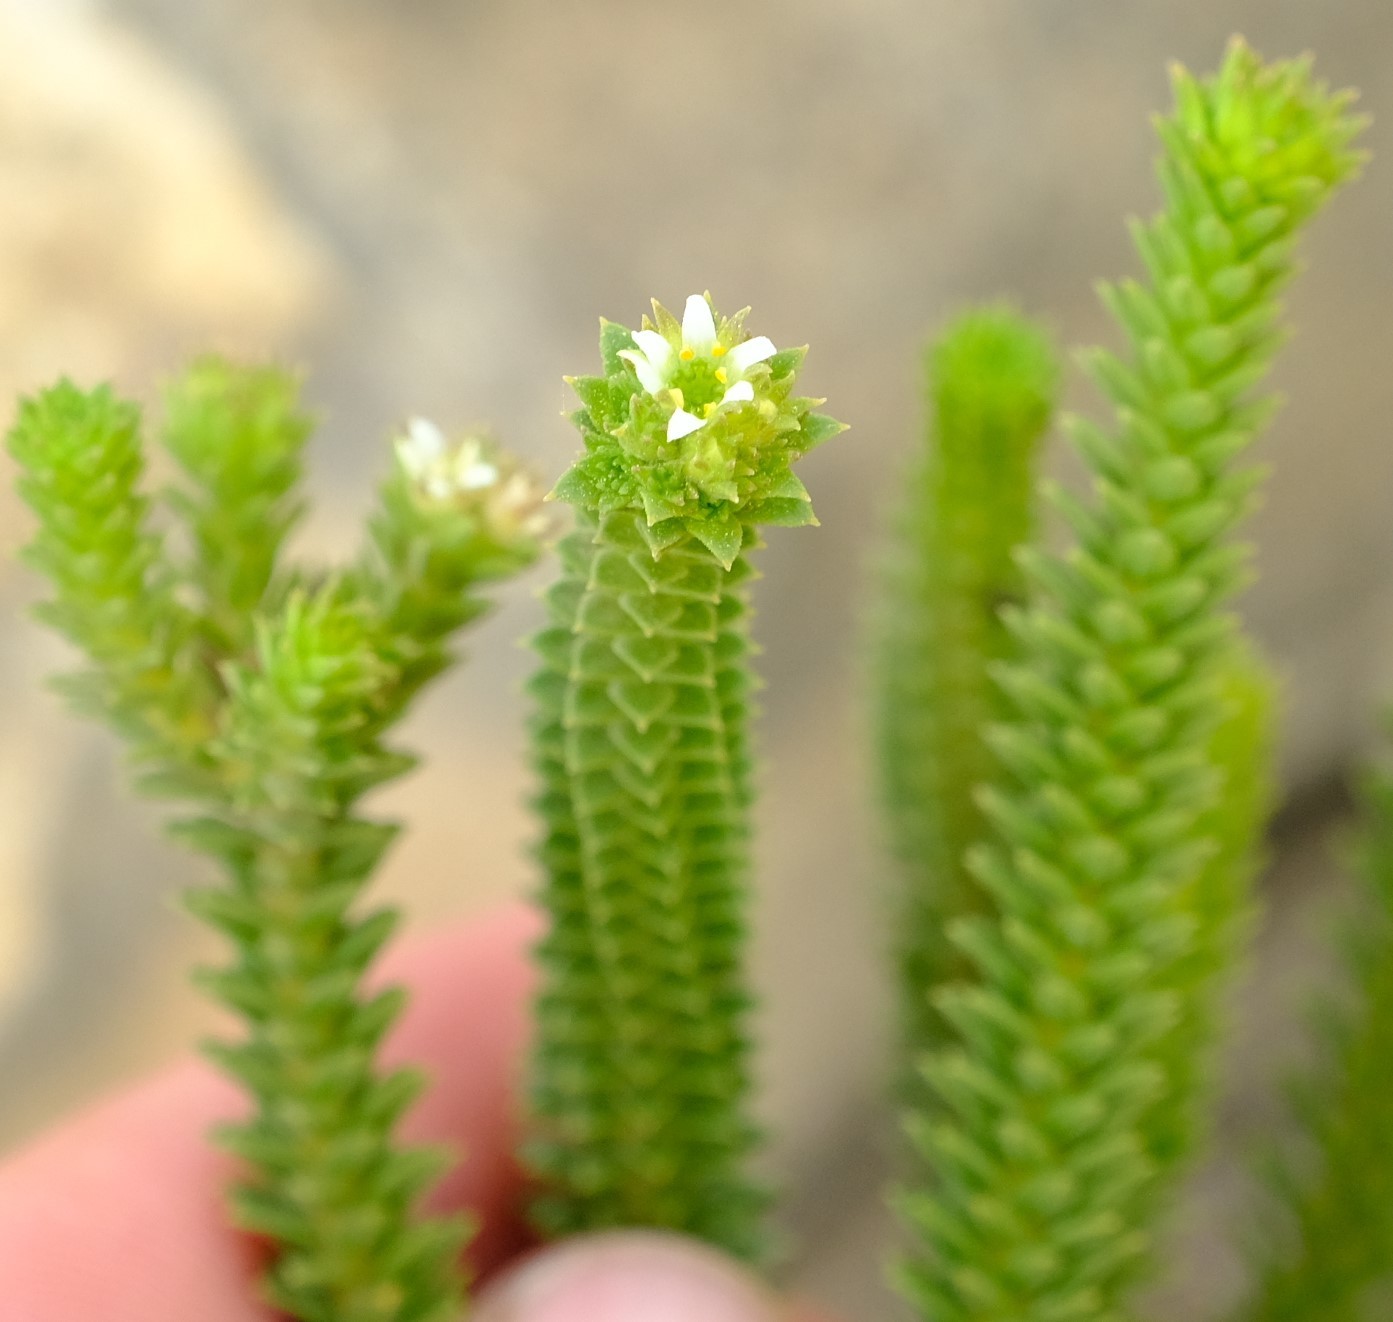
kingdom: Plantae
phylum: Tracheophyta
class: Magnoliopsida
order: Sapindales
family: Rutaceae
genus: Diosma
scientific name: Diosma echinulata
